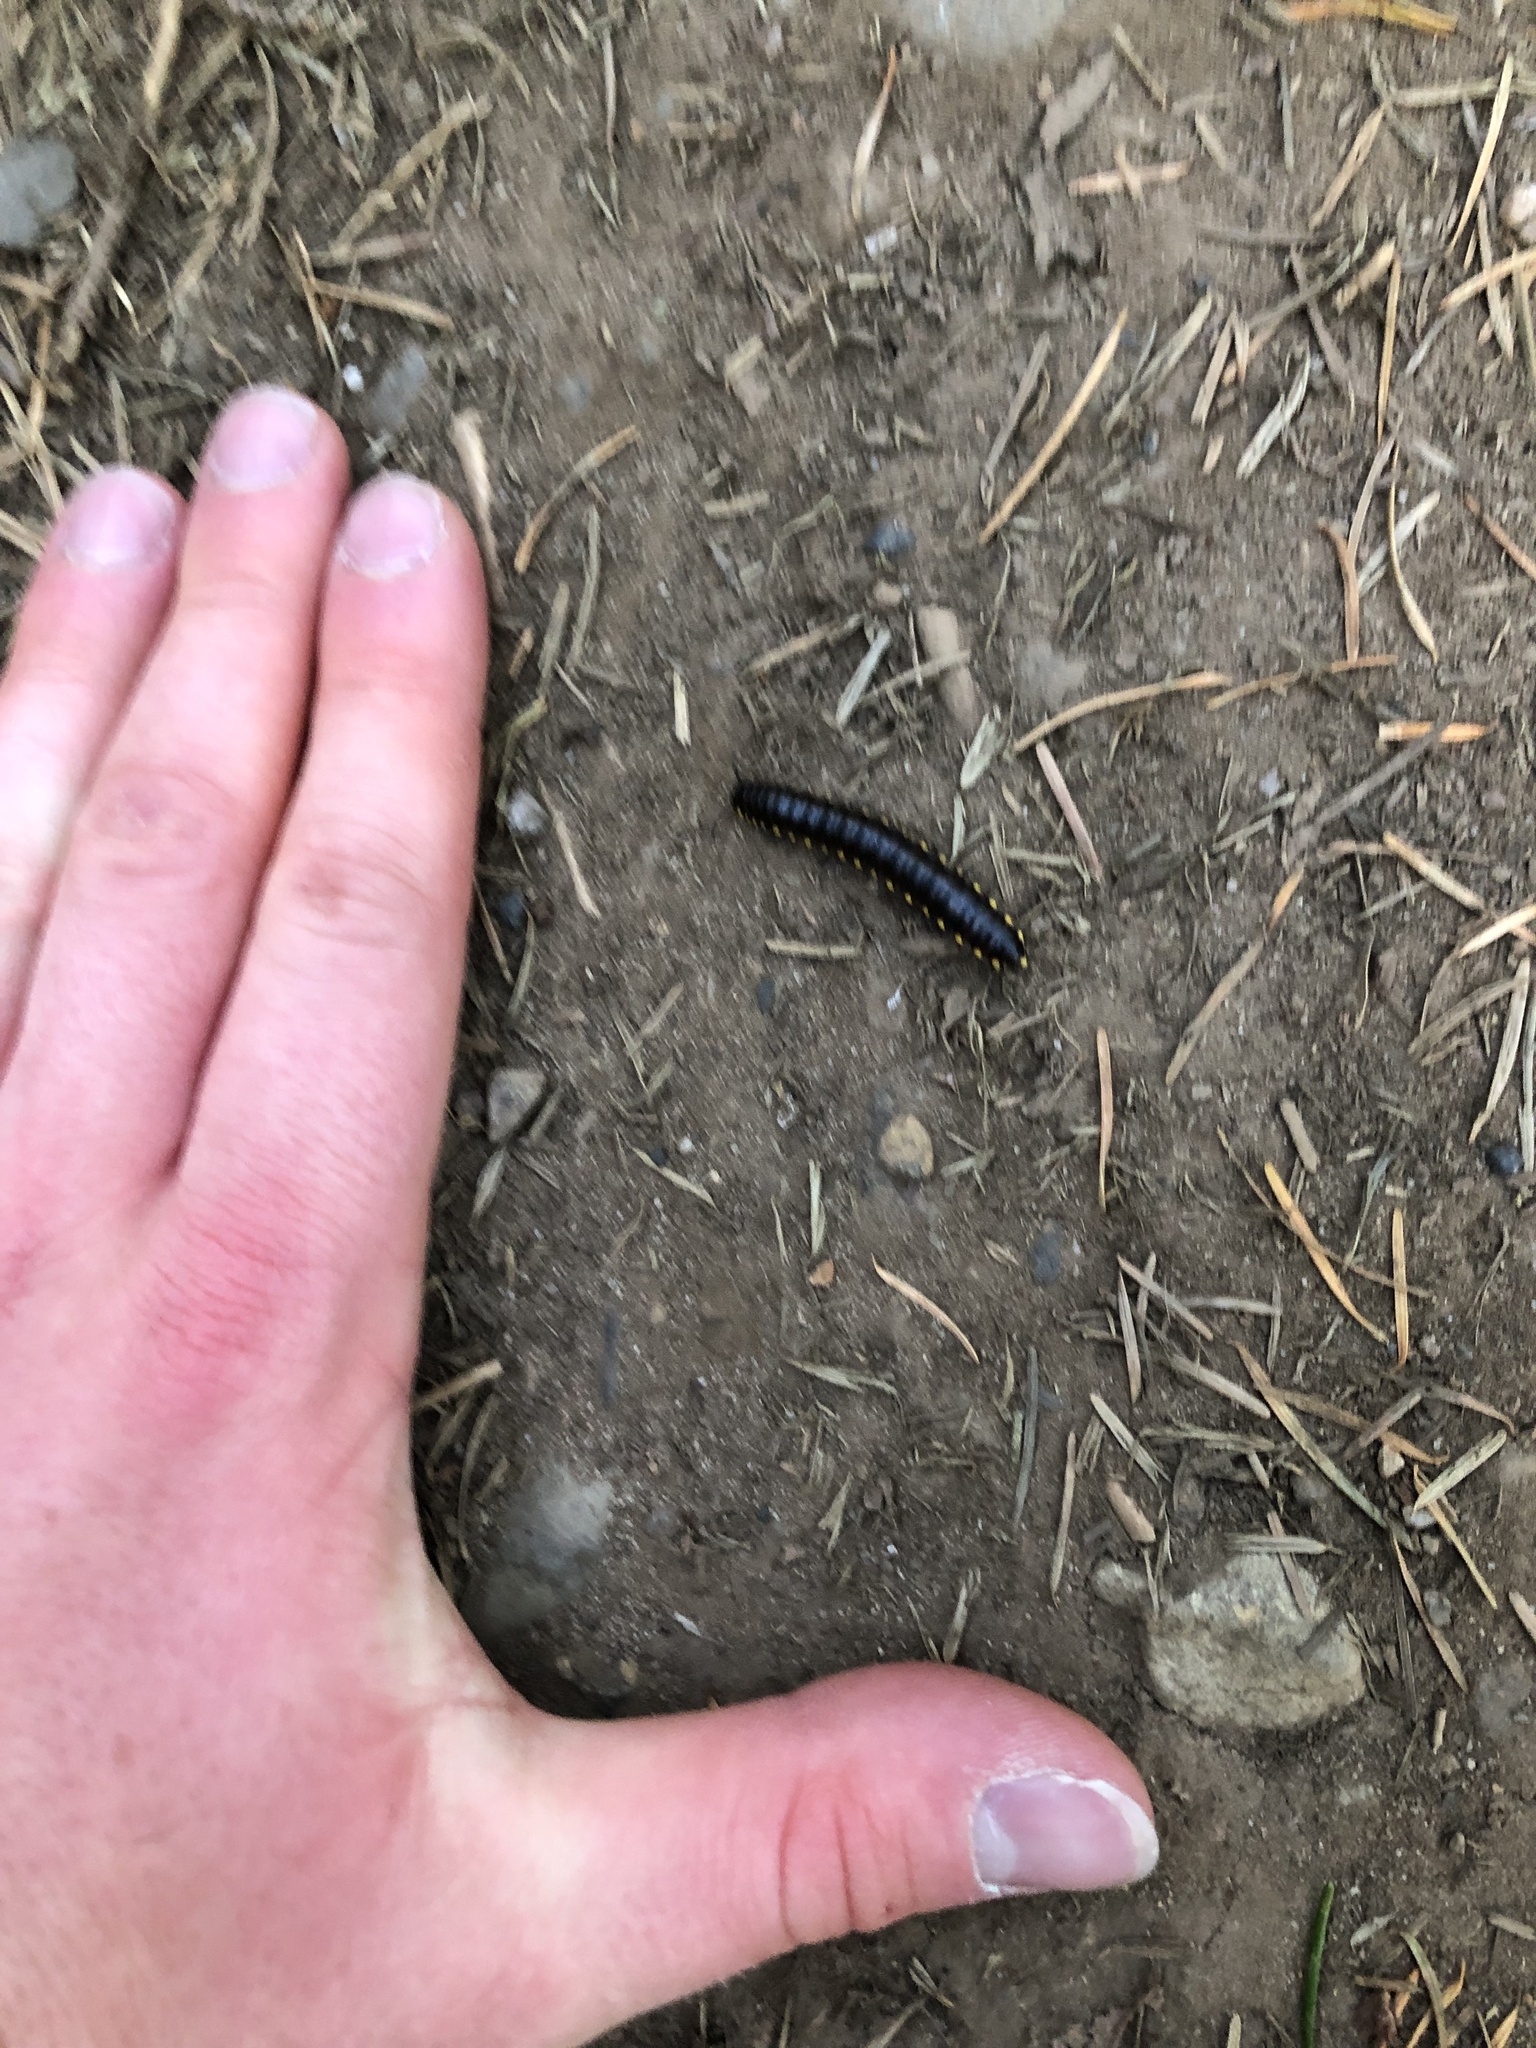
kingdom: Animalia
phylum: Arthropoda
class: Diplopoda
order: Polydesmida
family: Xystodesmidae
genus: Harpaphe
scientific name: Harpaphe haydeniana
